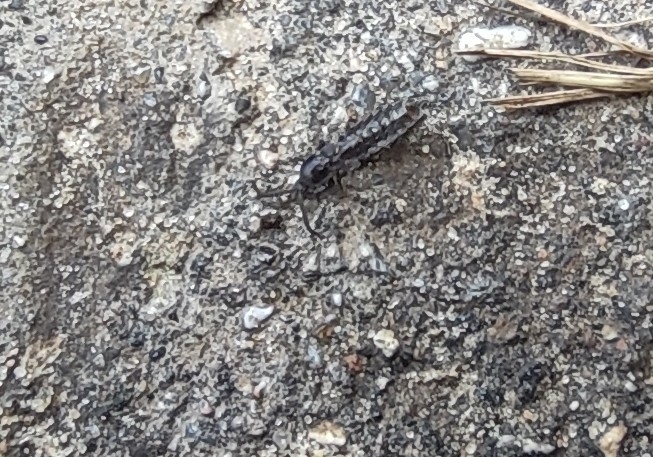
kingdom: Animalia
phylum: Arthropoda
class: Insecta
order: Coleoptera
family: Lampyridae
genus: Phosphaenus
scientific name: Phosphaenus hemipterus
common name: Short-winged firefly
